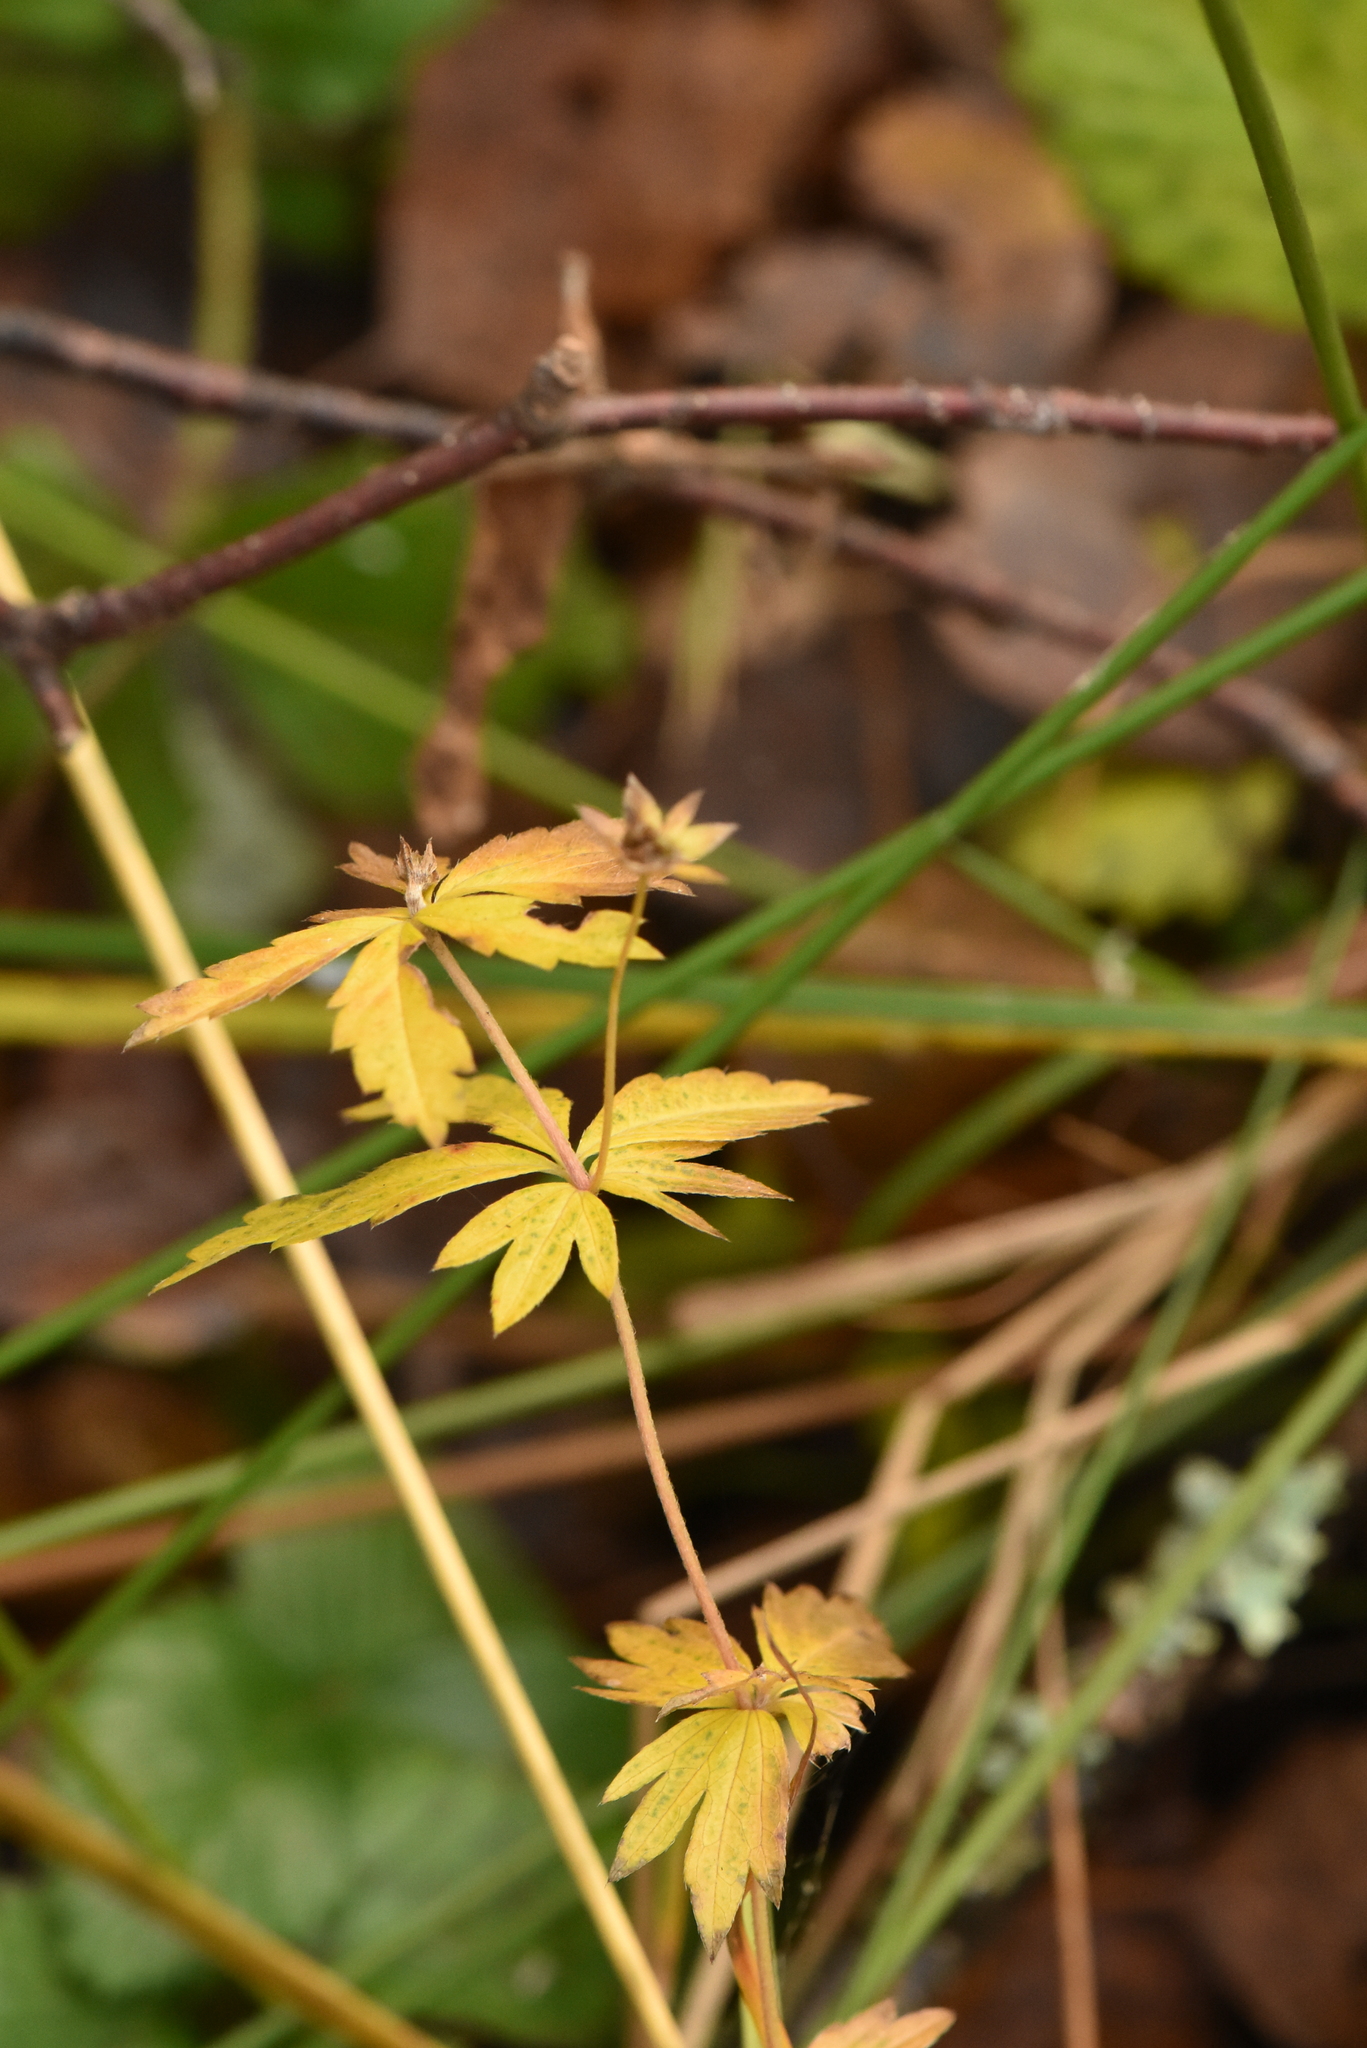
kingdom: Plantae
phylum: Tracheophyta
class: Magnoliopsida
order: Rosales
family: Rosaceae
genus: Potentilla
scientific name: Potentilla erecta
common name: Tormentil
